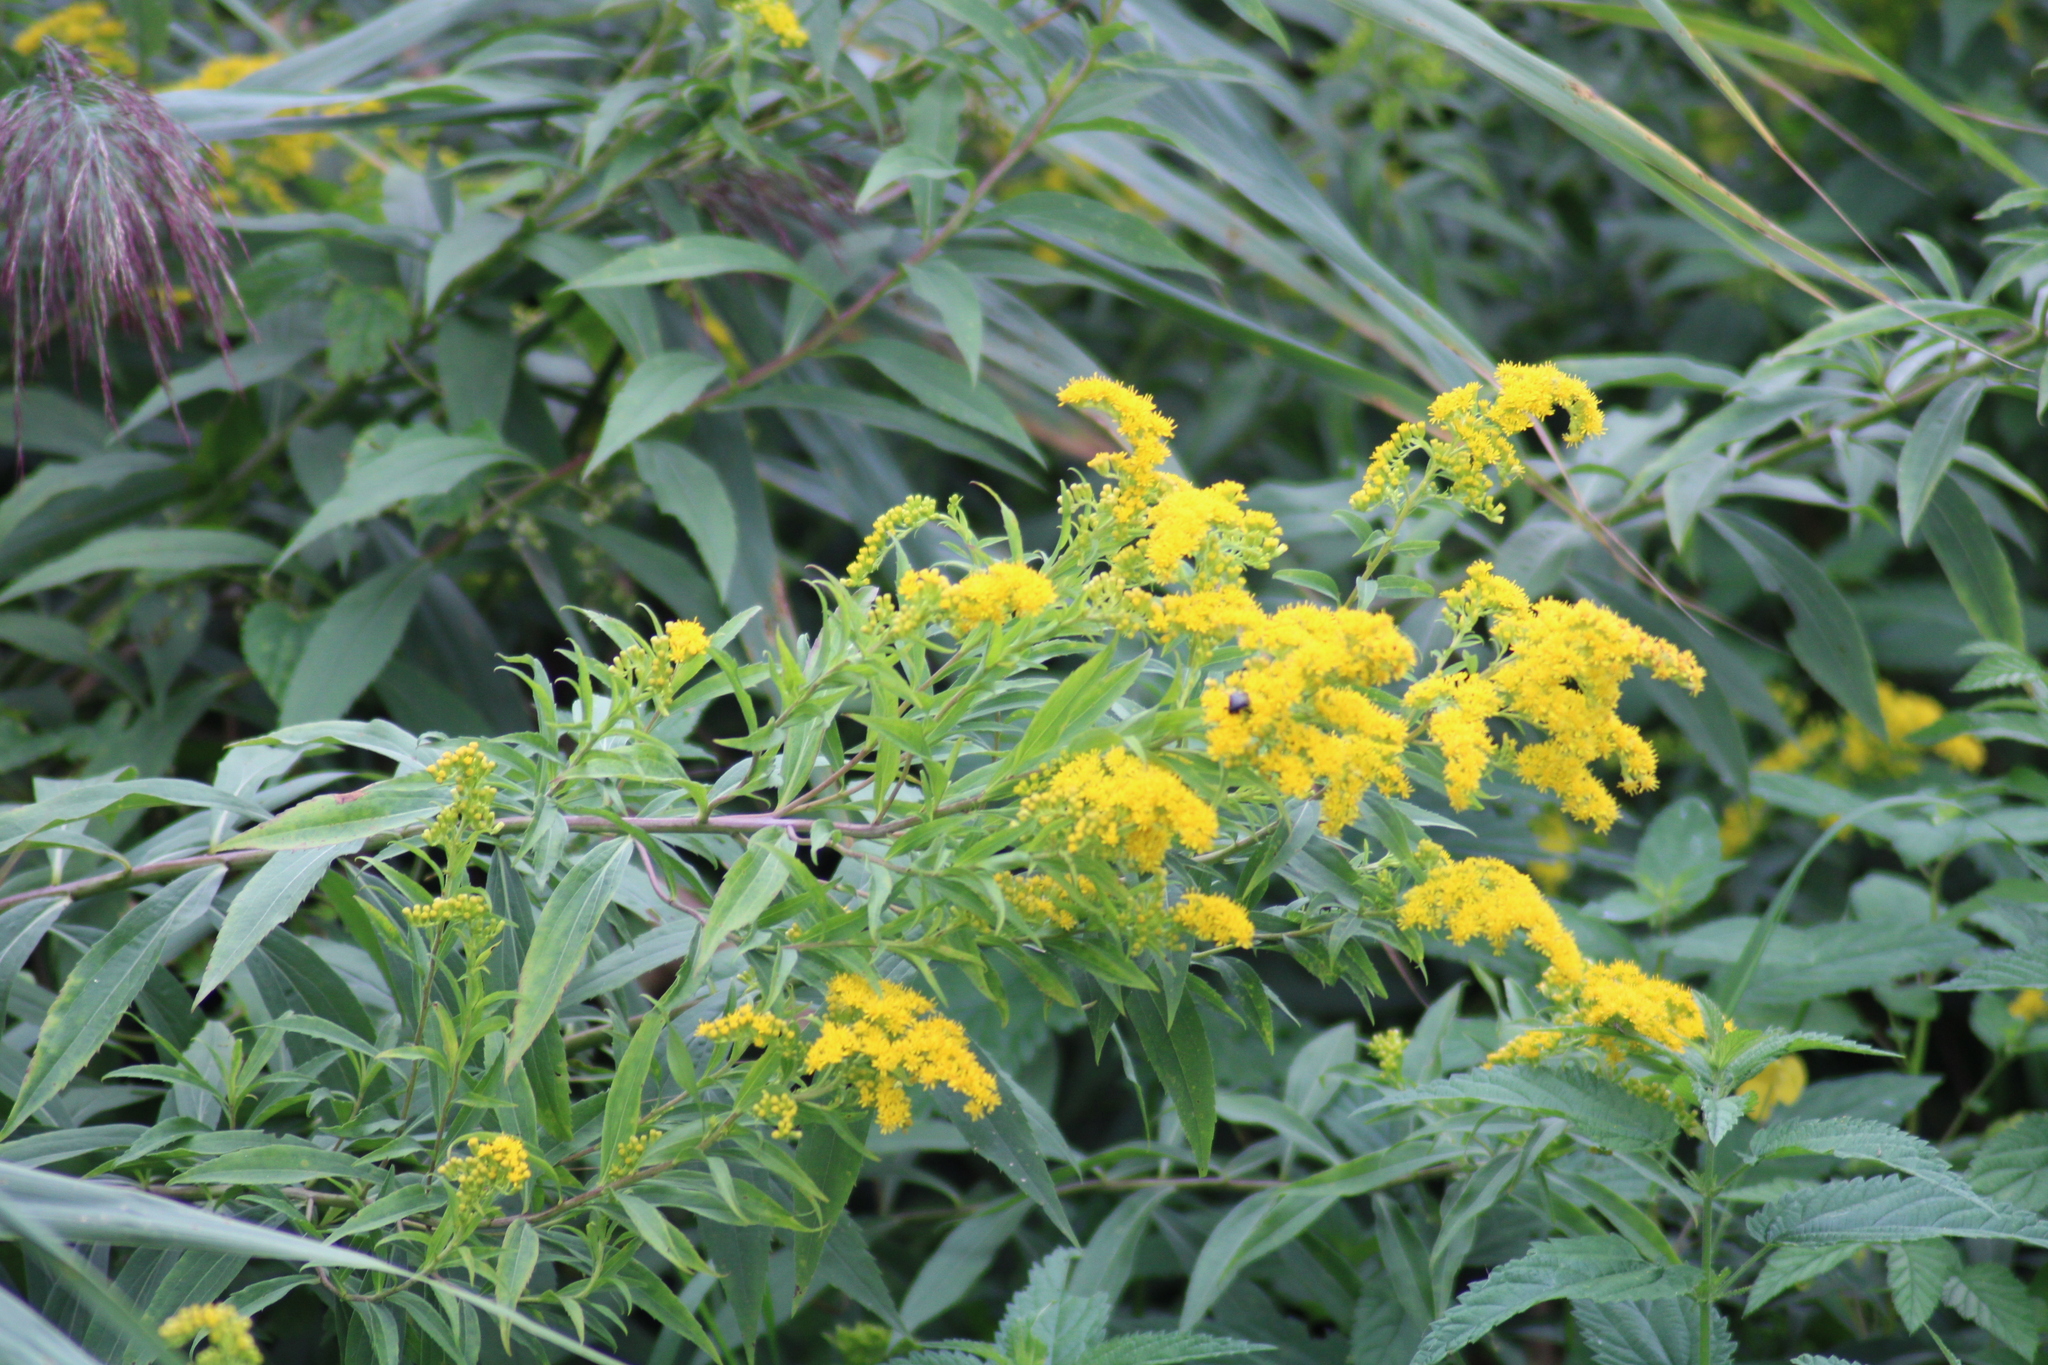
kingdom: Plantae
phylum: Tracheophyta
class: Magnoliopsida
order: Asterales
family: Asteraceae
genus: Solidago
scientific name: Solidago gigantea
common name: Giant goldenrod
